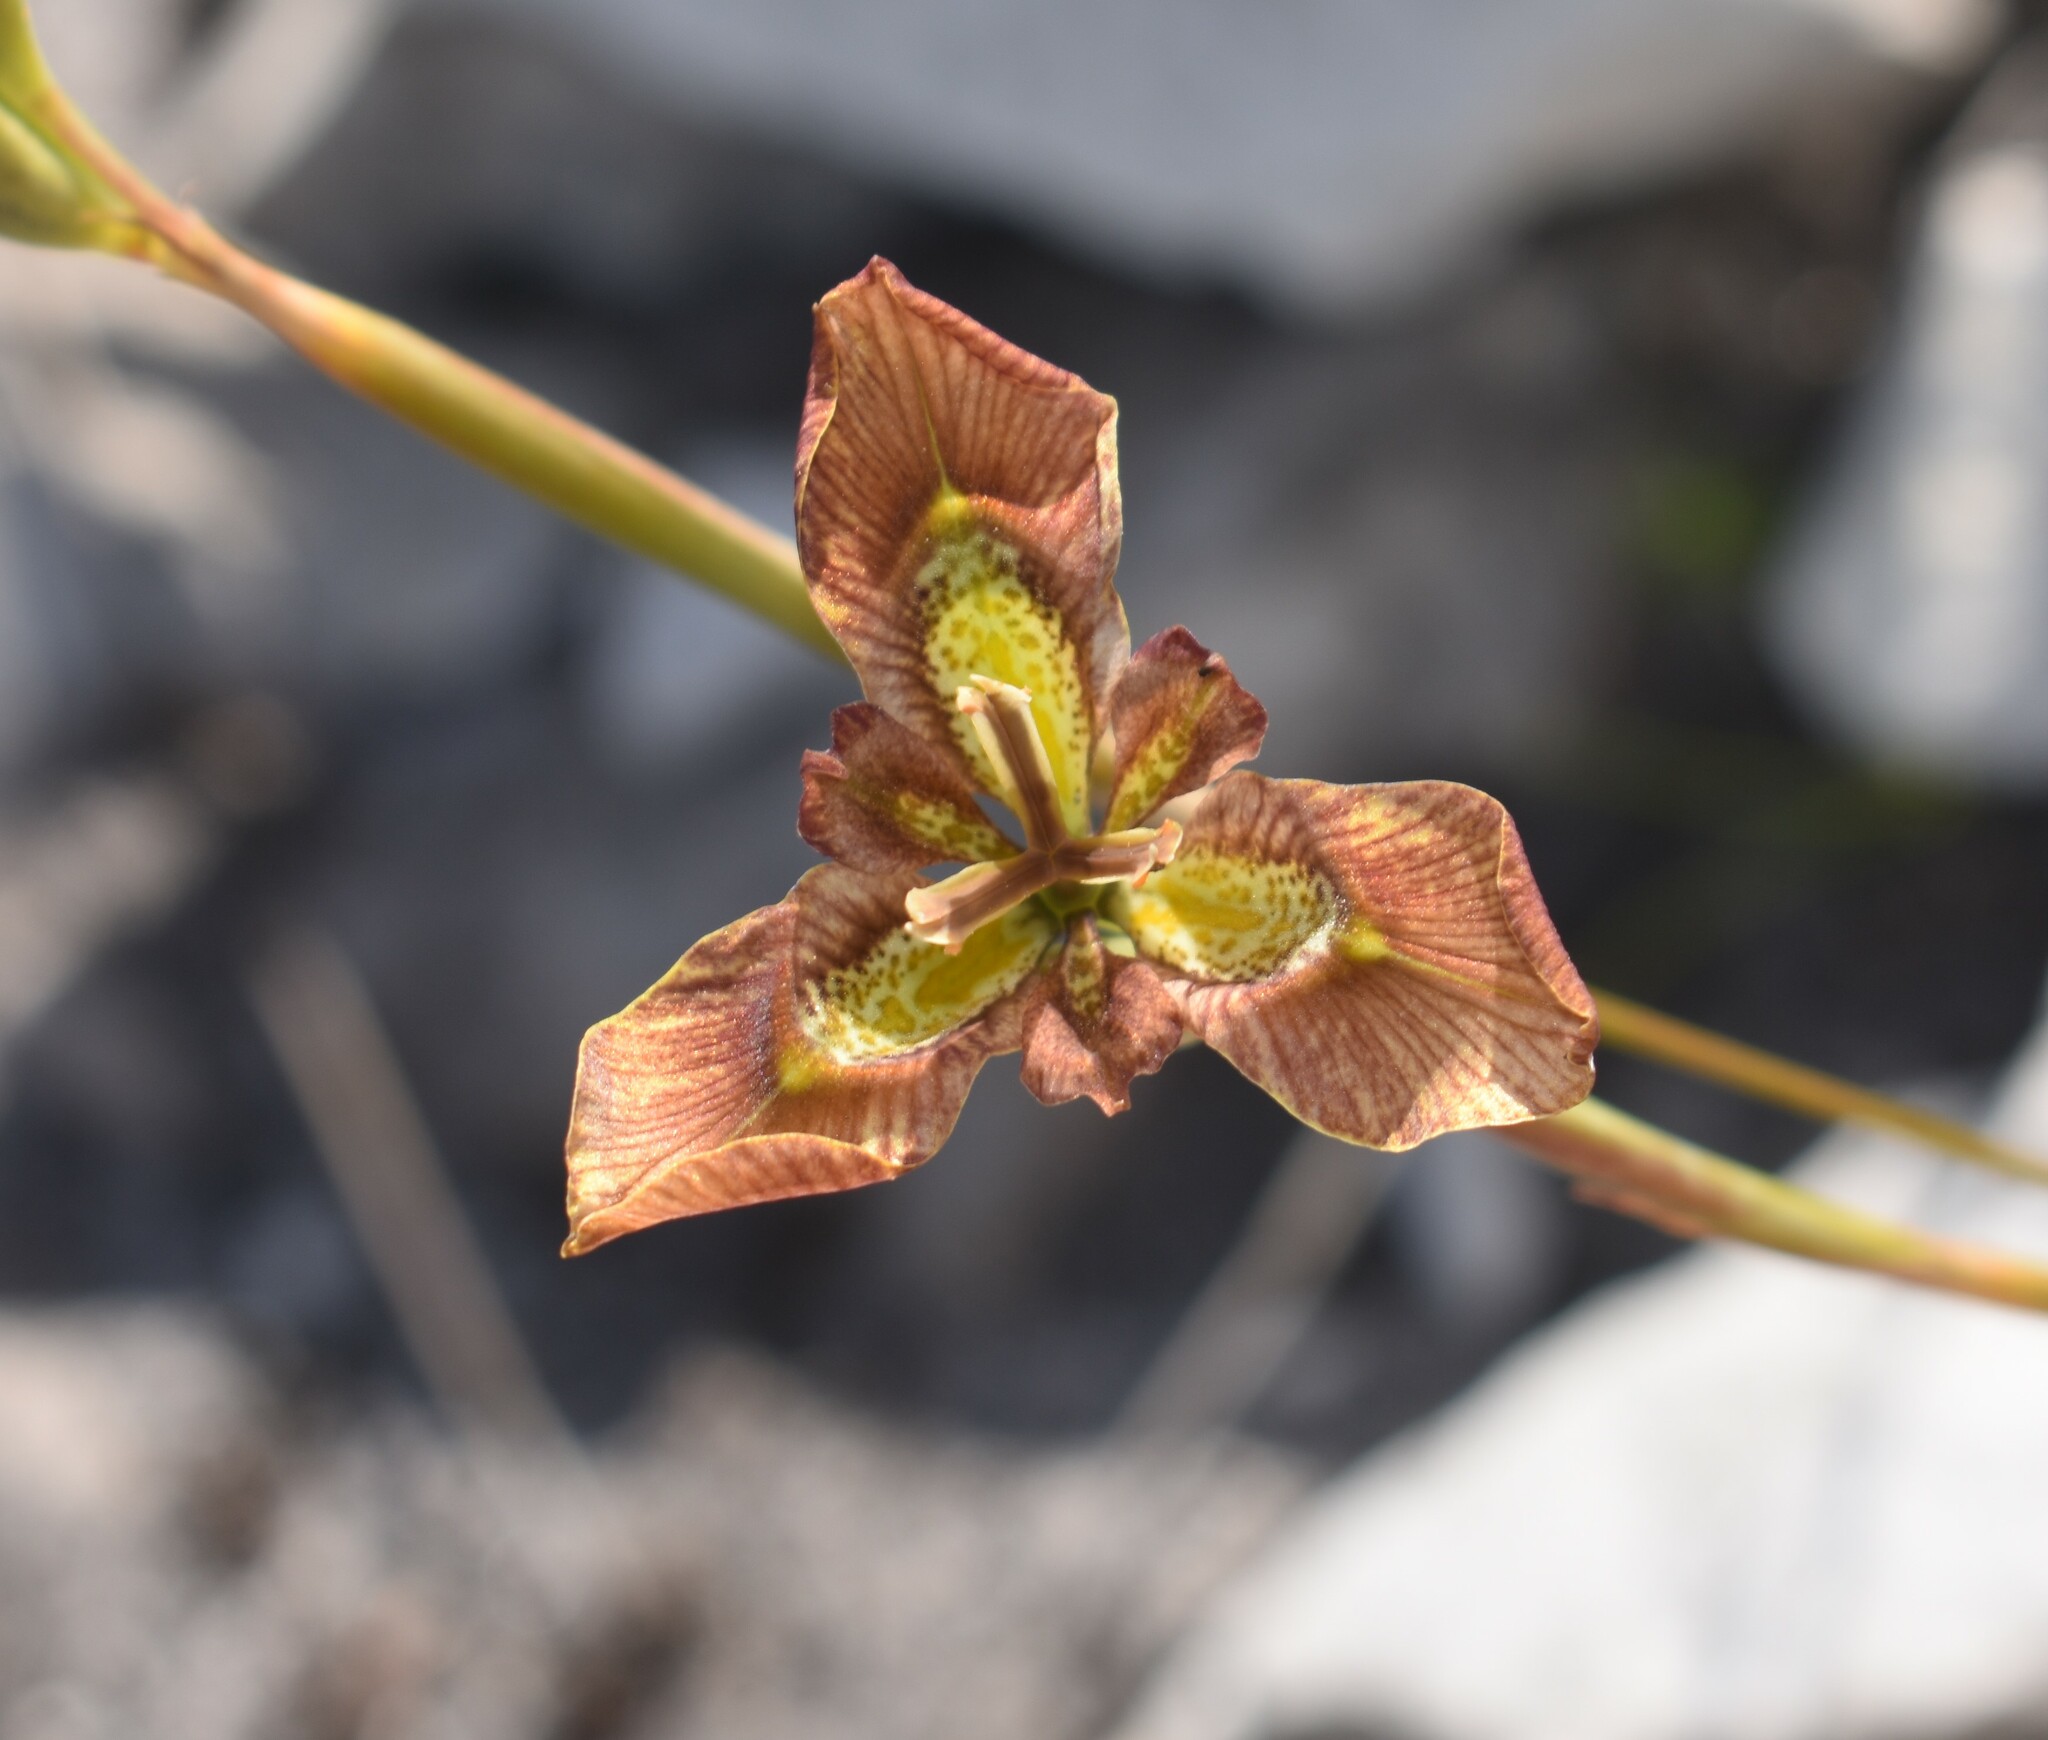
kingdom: Plantae
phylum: Tracheophyta
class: Liliopsida
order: Asparagales
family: Iridaceae
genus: Moraea
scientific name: Moraea lurida
